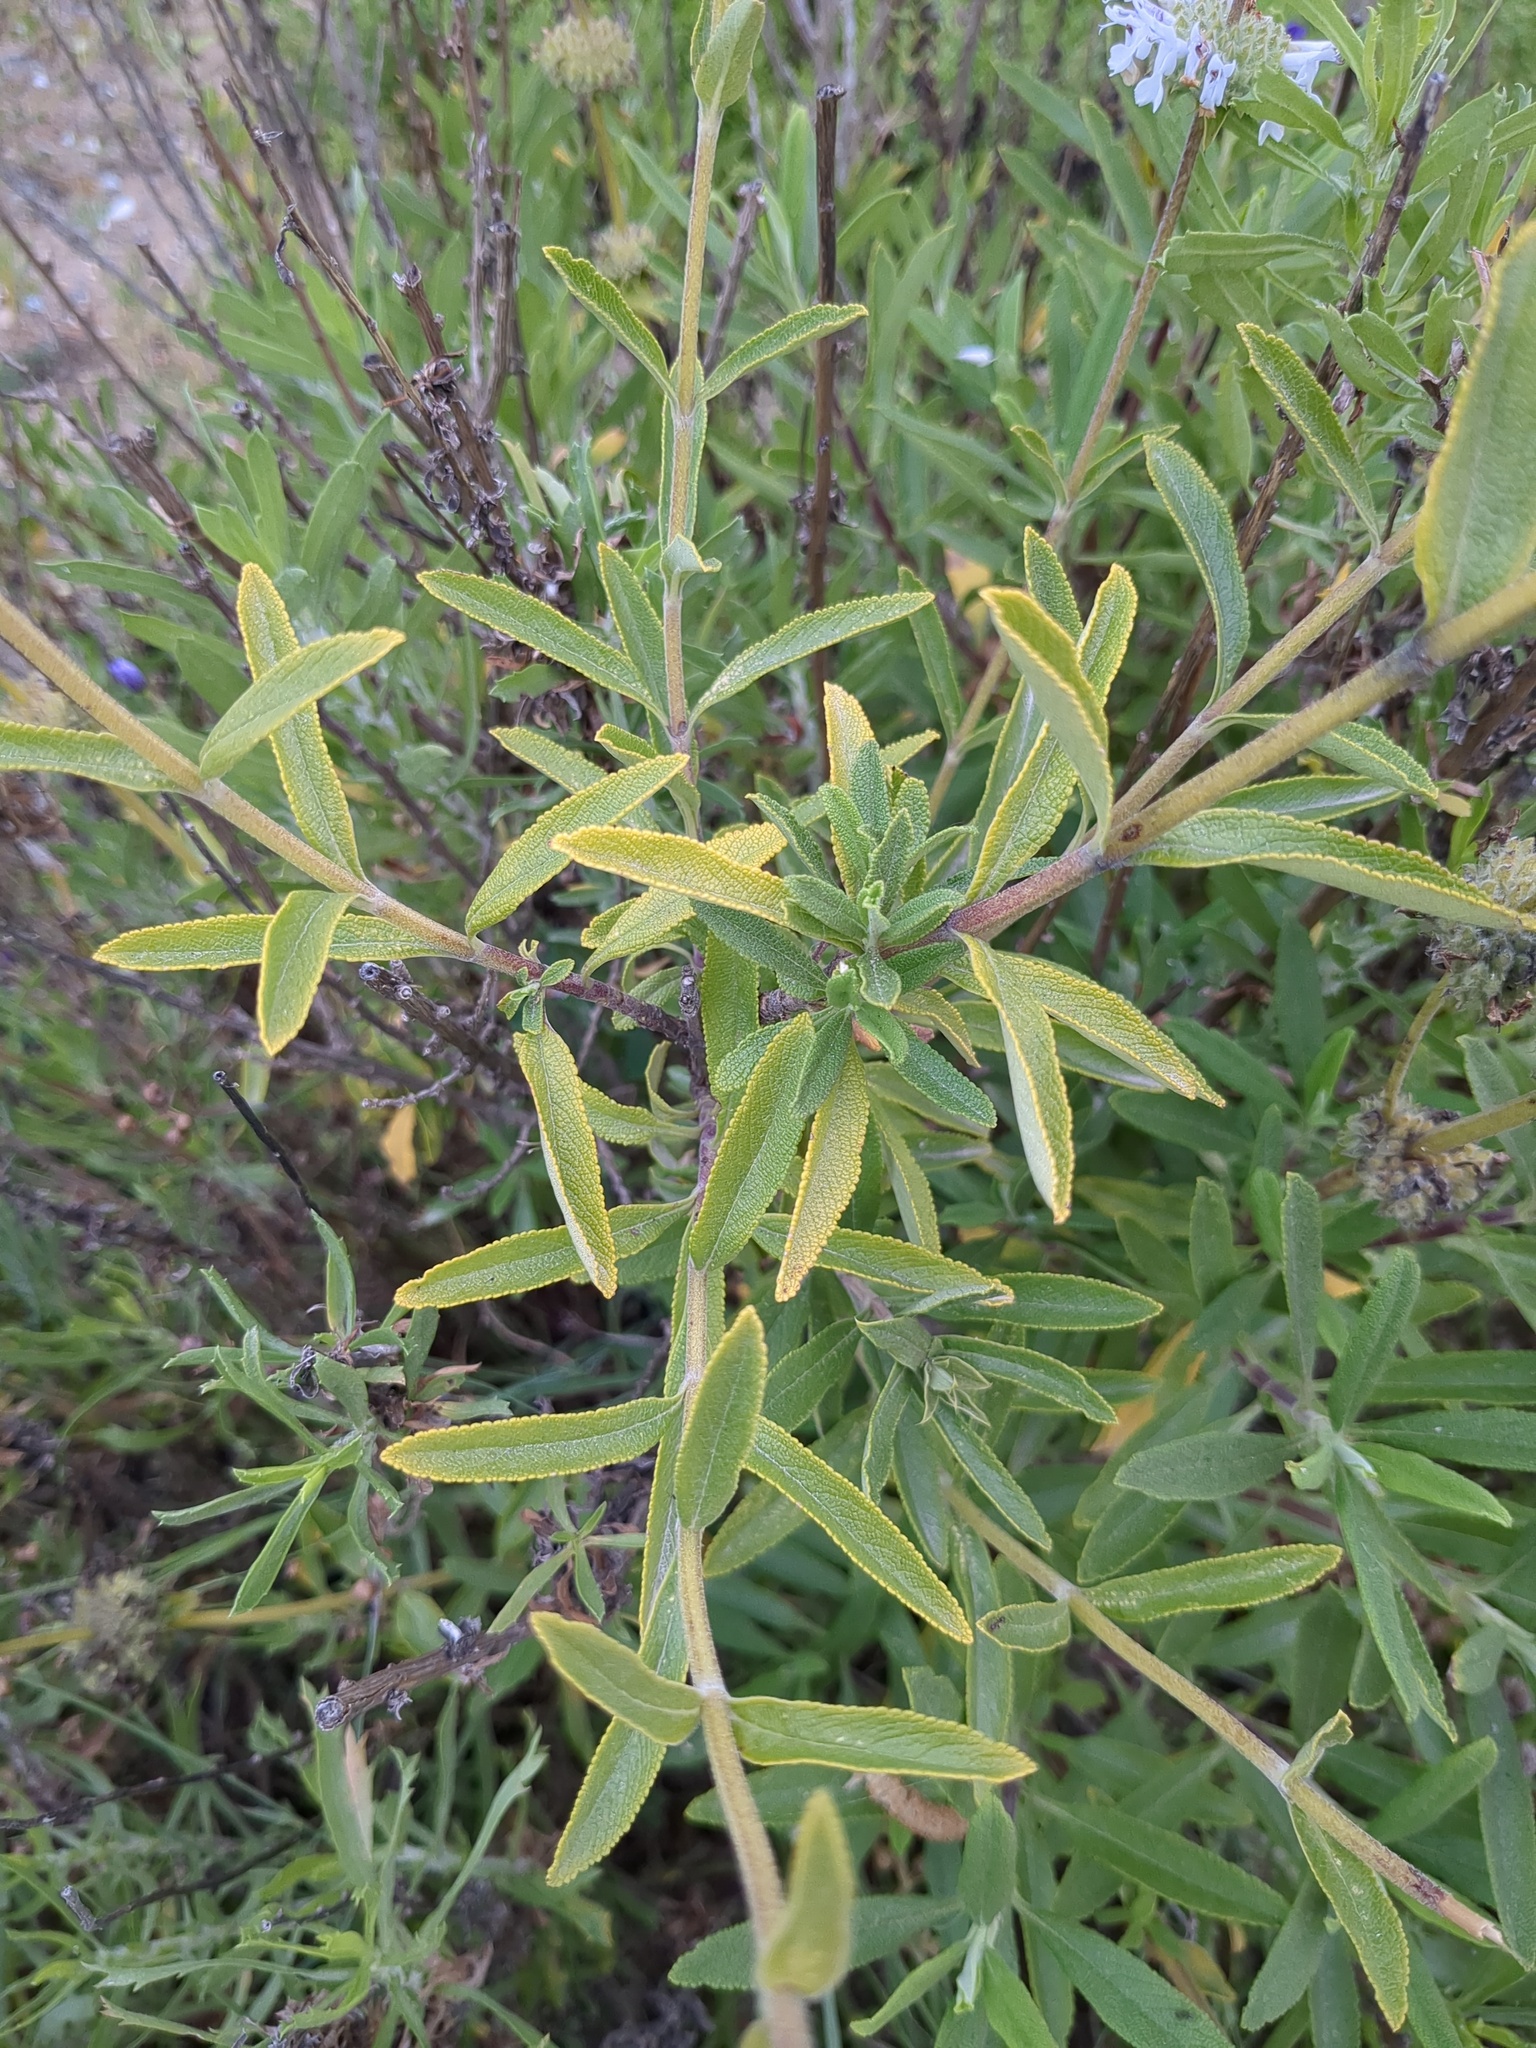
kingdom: Plantae
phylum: Tracheophyta
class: Magnoliopsida
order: Lamiales
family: Lamiaceae
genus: Salvia
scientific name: Salvia mellifera
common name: Black sage
